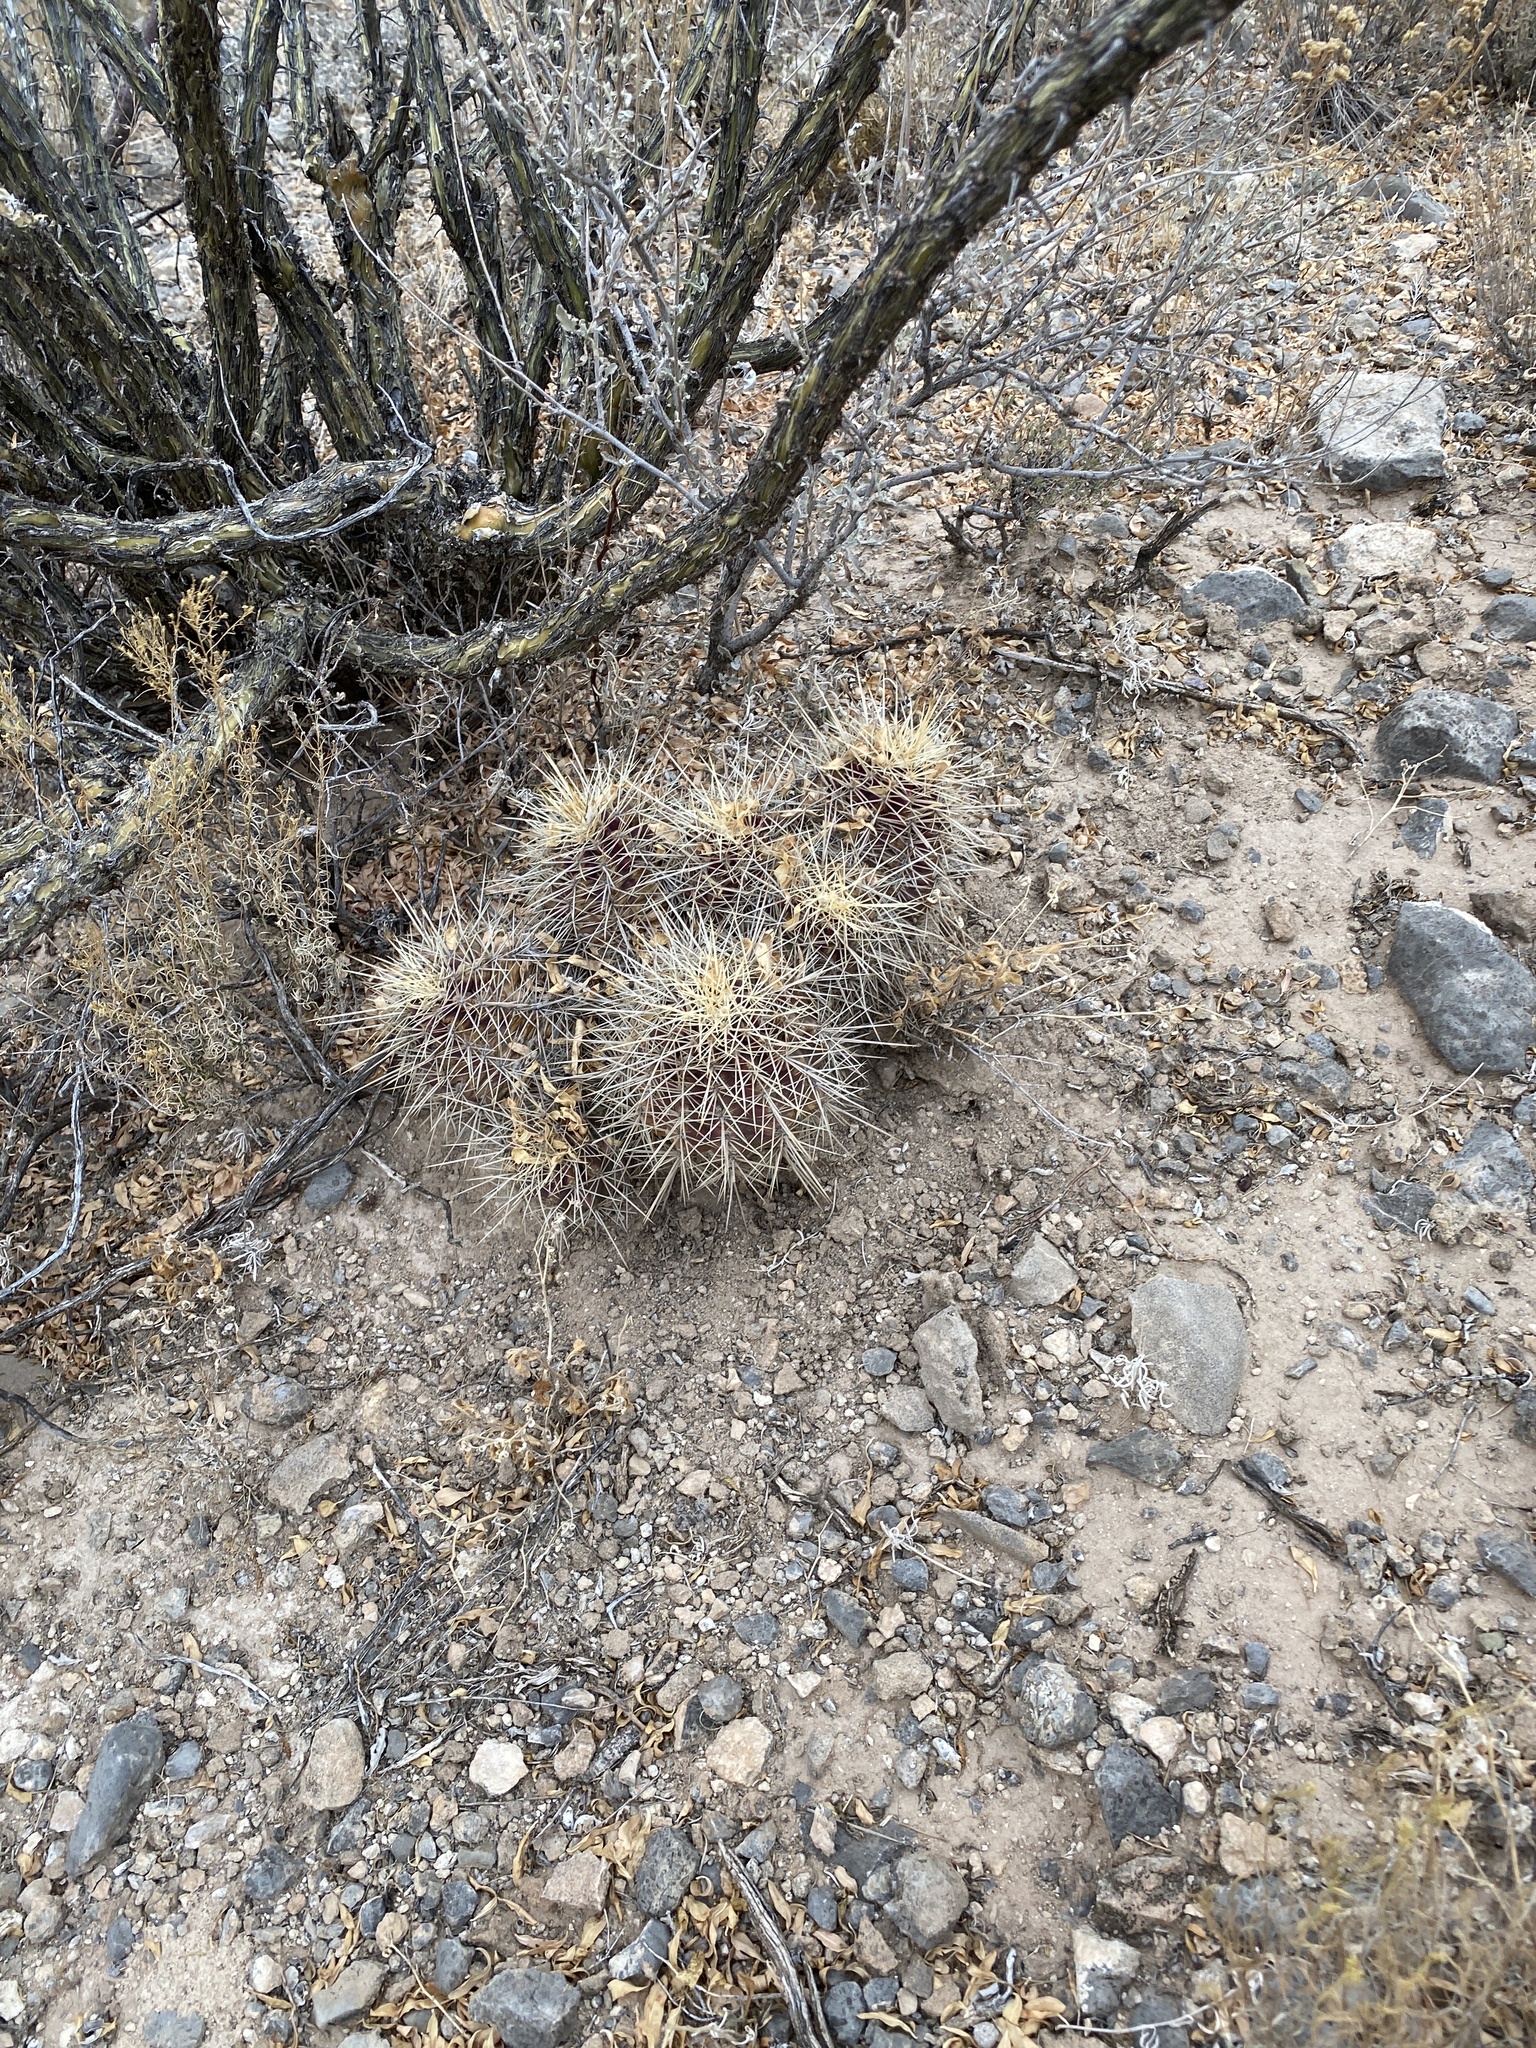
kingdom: Plantae
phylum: Tracheophyta
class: Magnoliopsida
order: Caryophyllales
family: Cactaceae
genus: Echinocereus
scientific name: Echinocereus coccineus
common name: Scarlet hedgehog cactus
